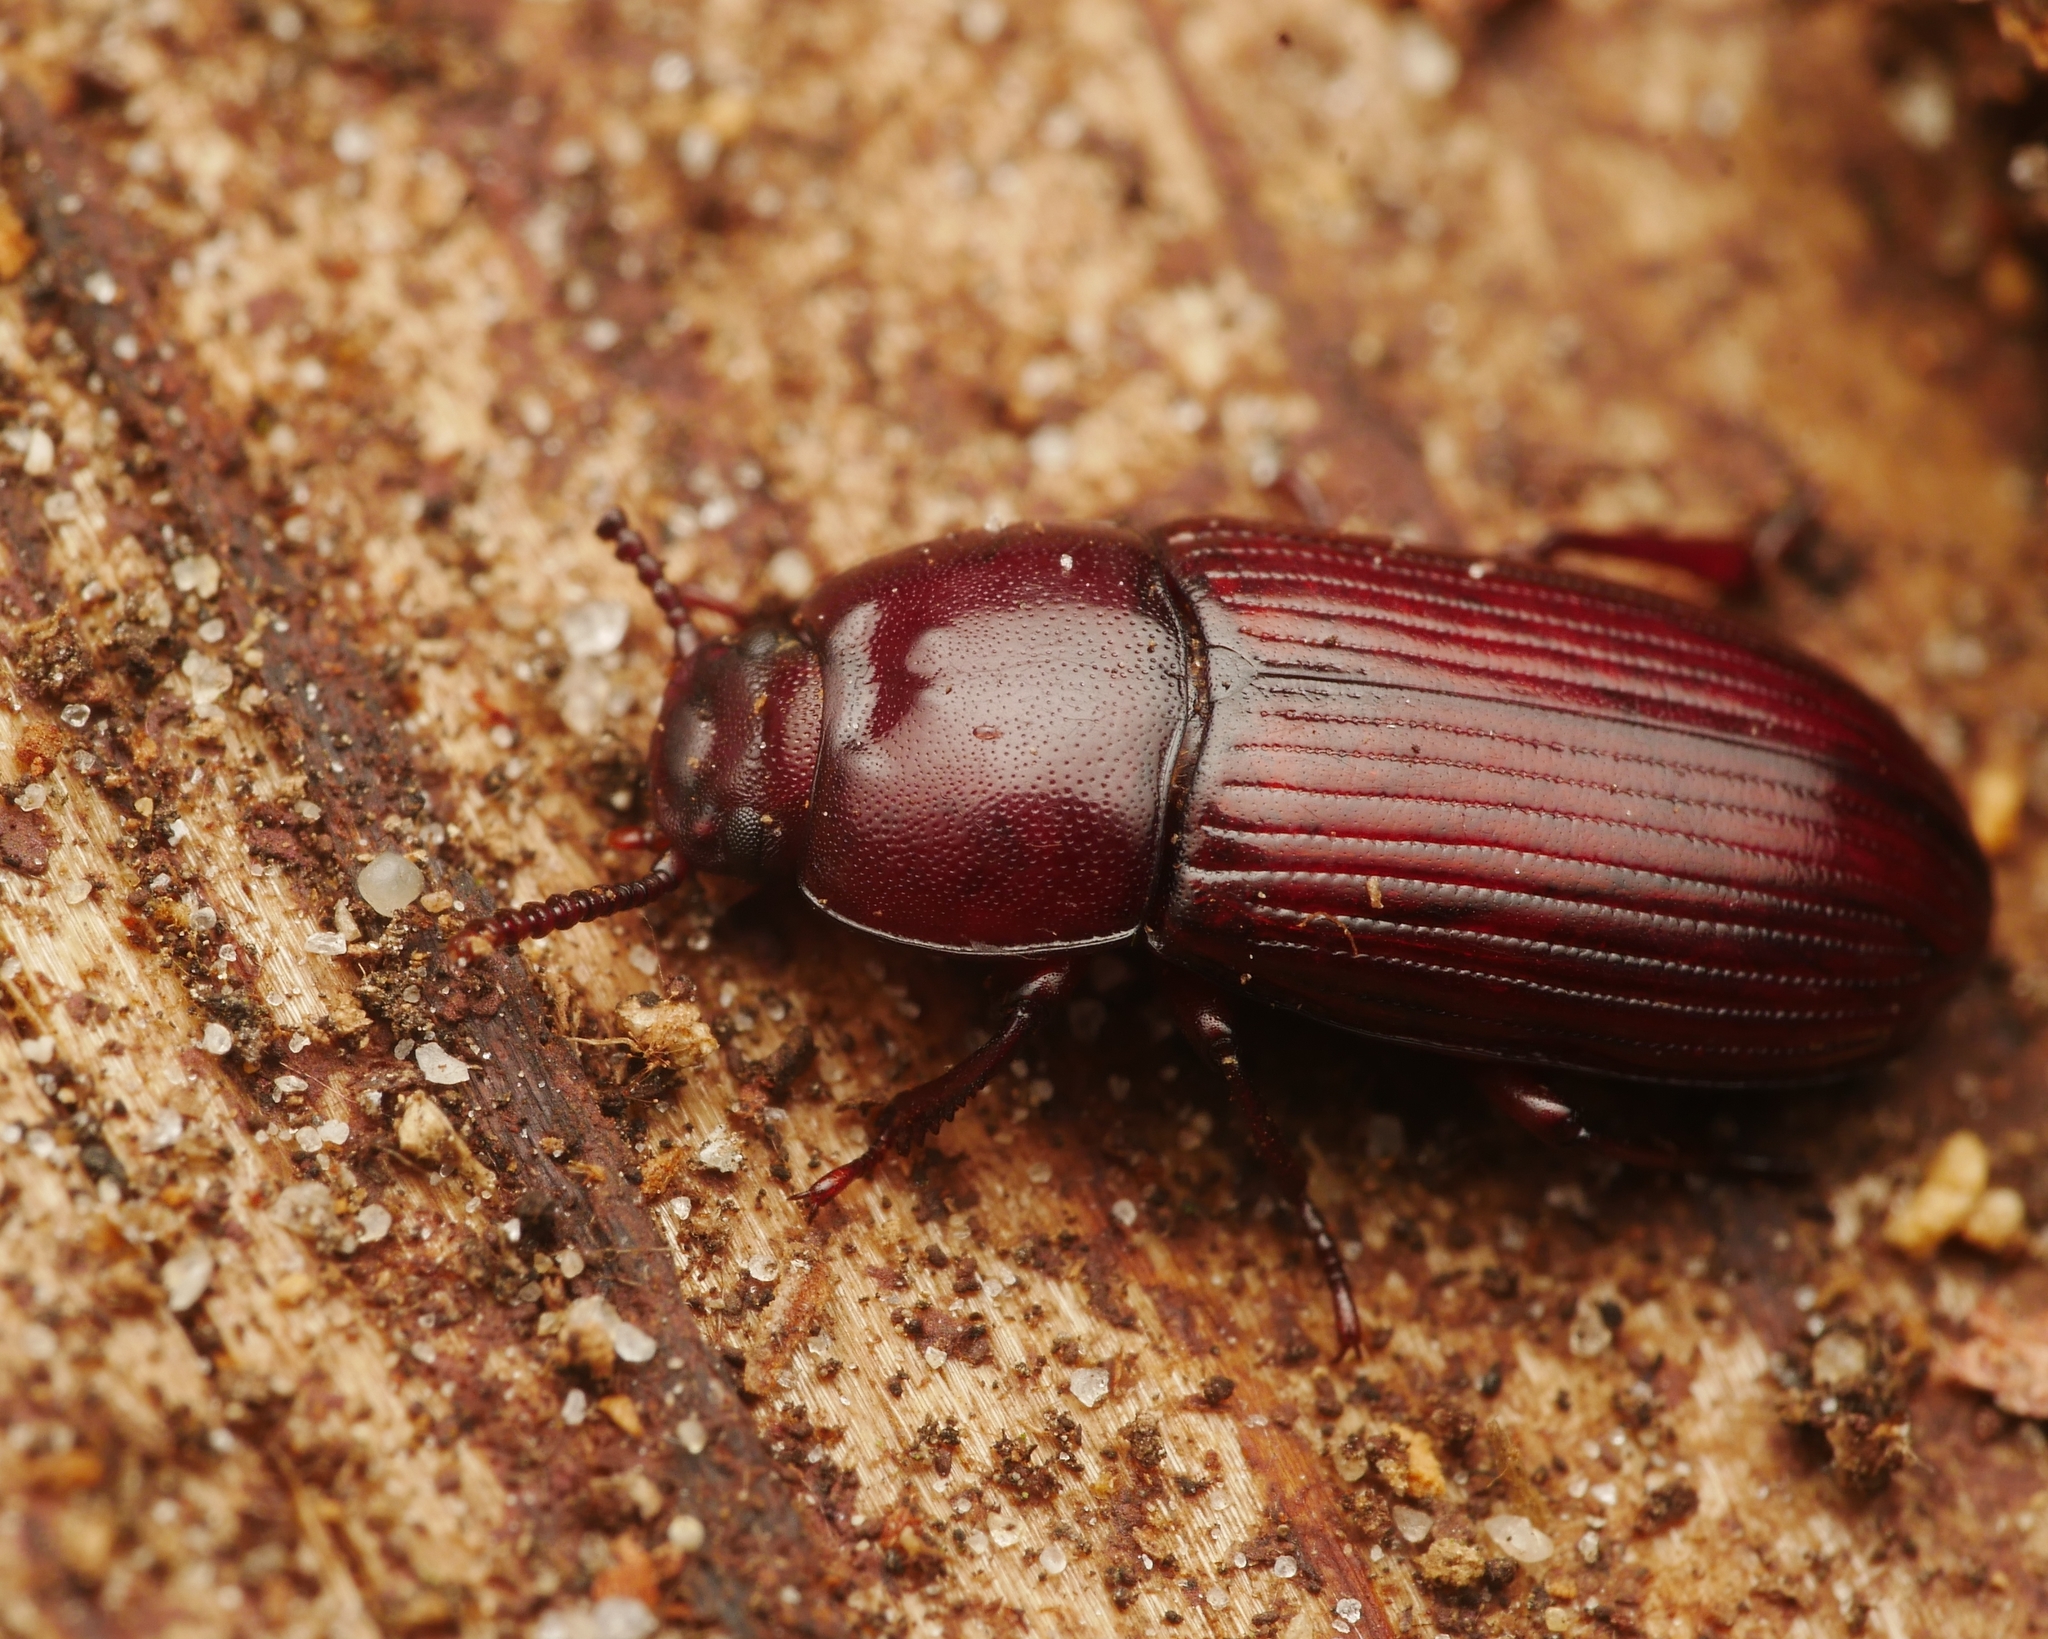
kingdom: Animalia
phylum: Arthropoda
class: Insecta
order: Coleoptera
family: Tenebrionidae
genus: Uloma
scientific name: Uloma culinaris
